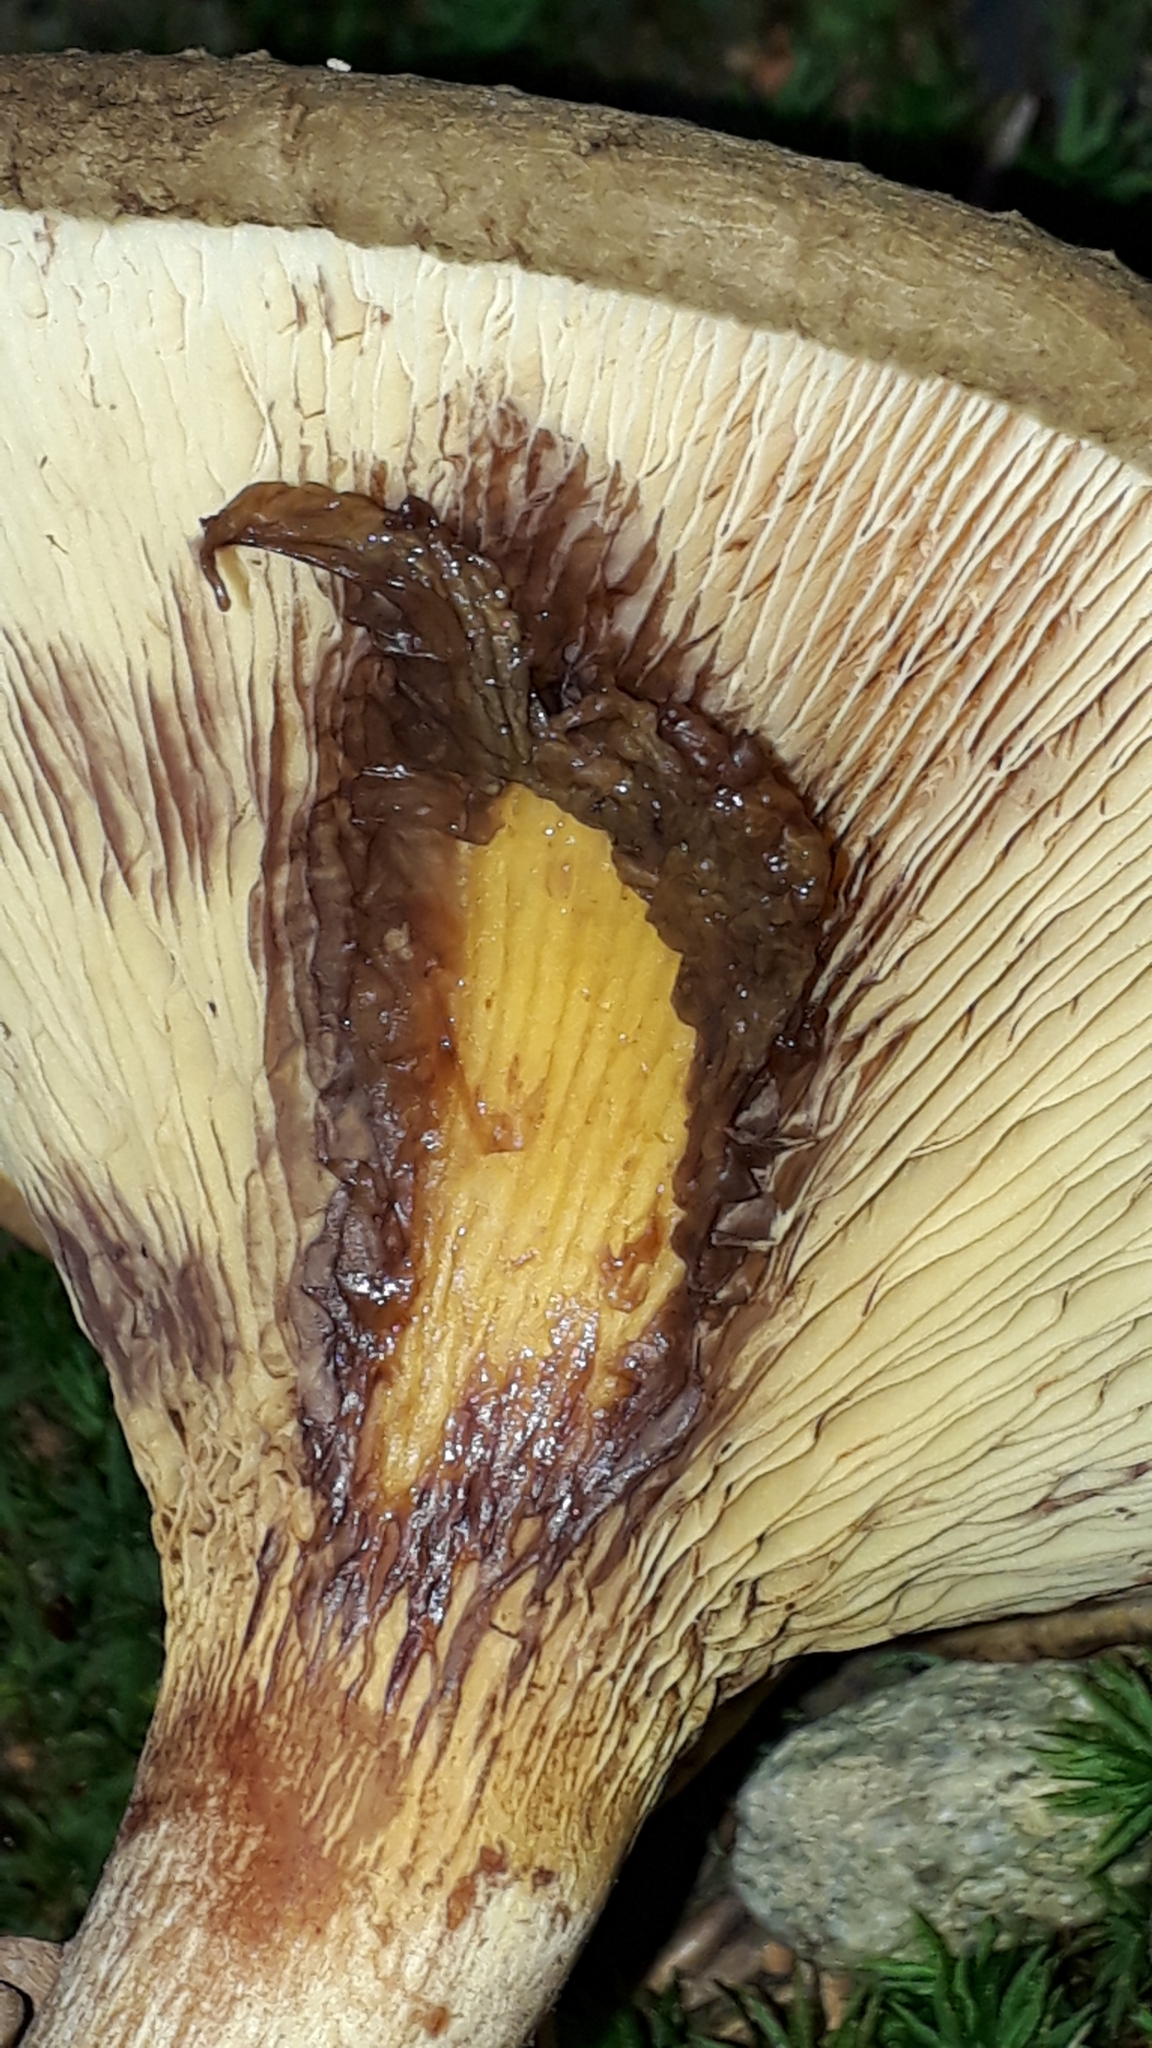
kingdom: Fungi
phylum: Basidiomycota
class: Agaricomycetes
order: Boletales
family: Paxillaceae
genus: Paxillus
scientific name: Paxillus involutus
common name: Brown roll rim
